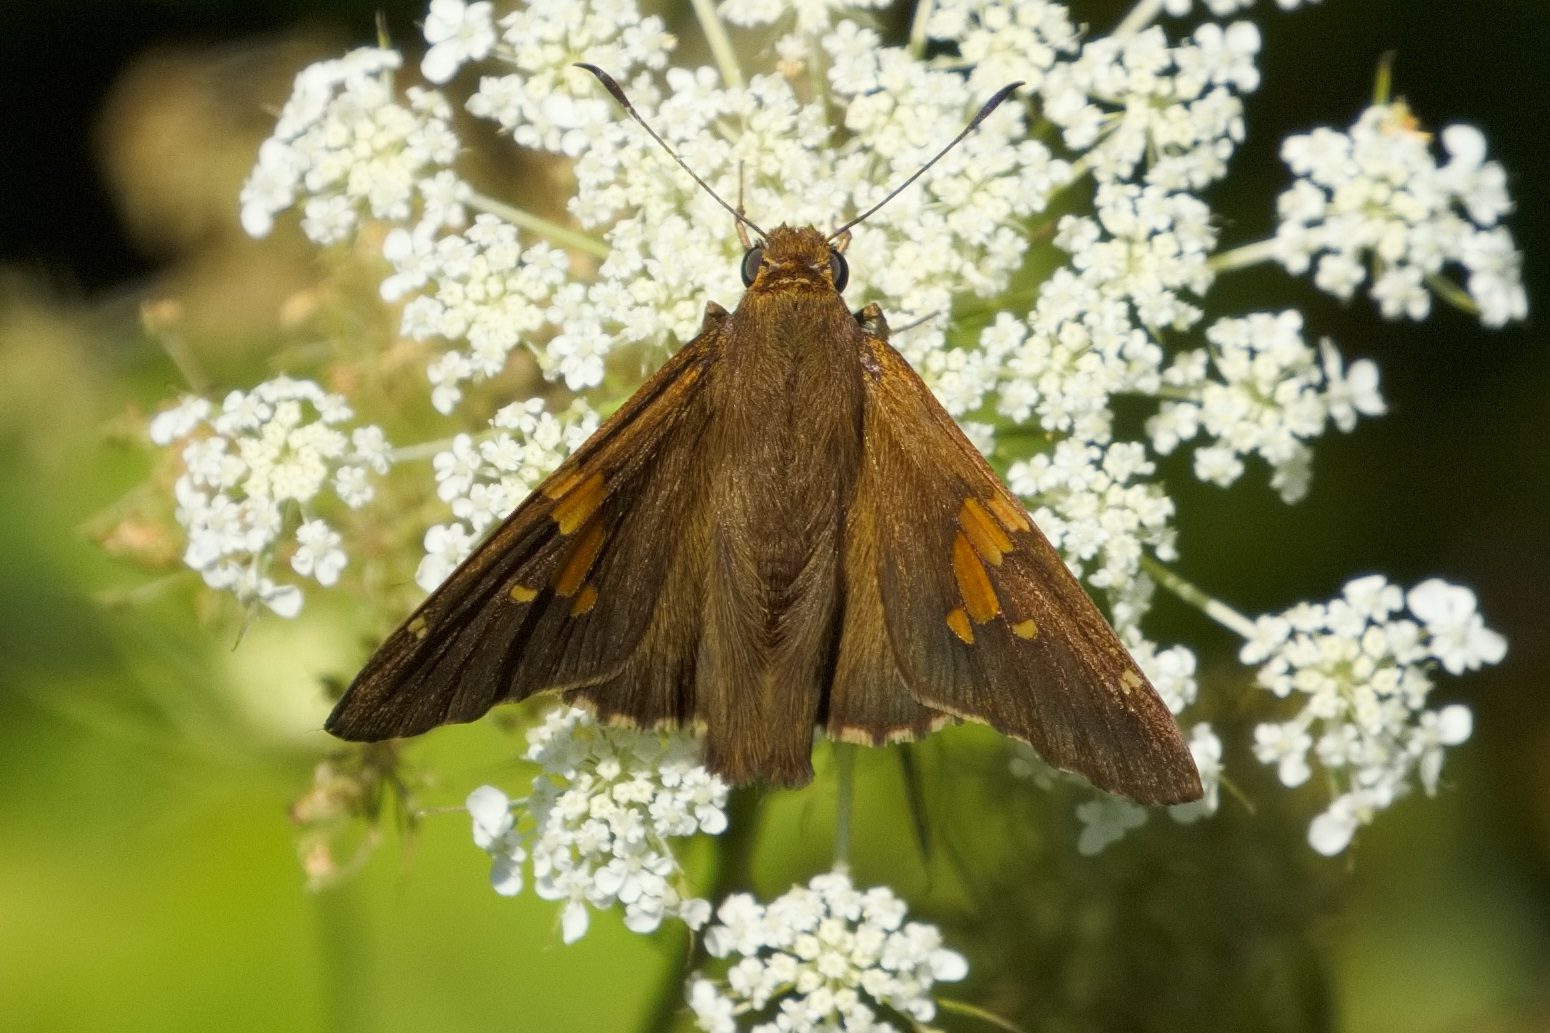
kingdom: Animalia
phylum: Arthropoda
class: Insecta
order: Lepidoptera
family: Hesperiidae
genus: Epargyreus
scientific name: Epargyreus clarus
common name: Silver-spotted skipper
